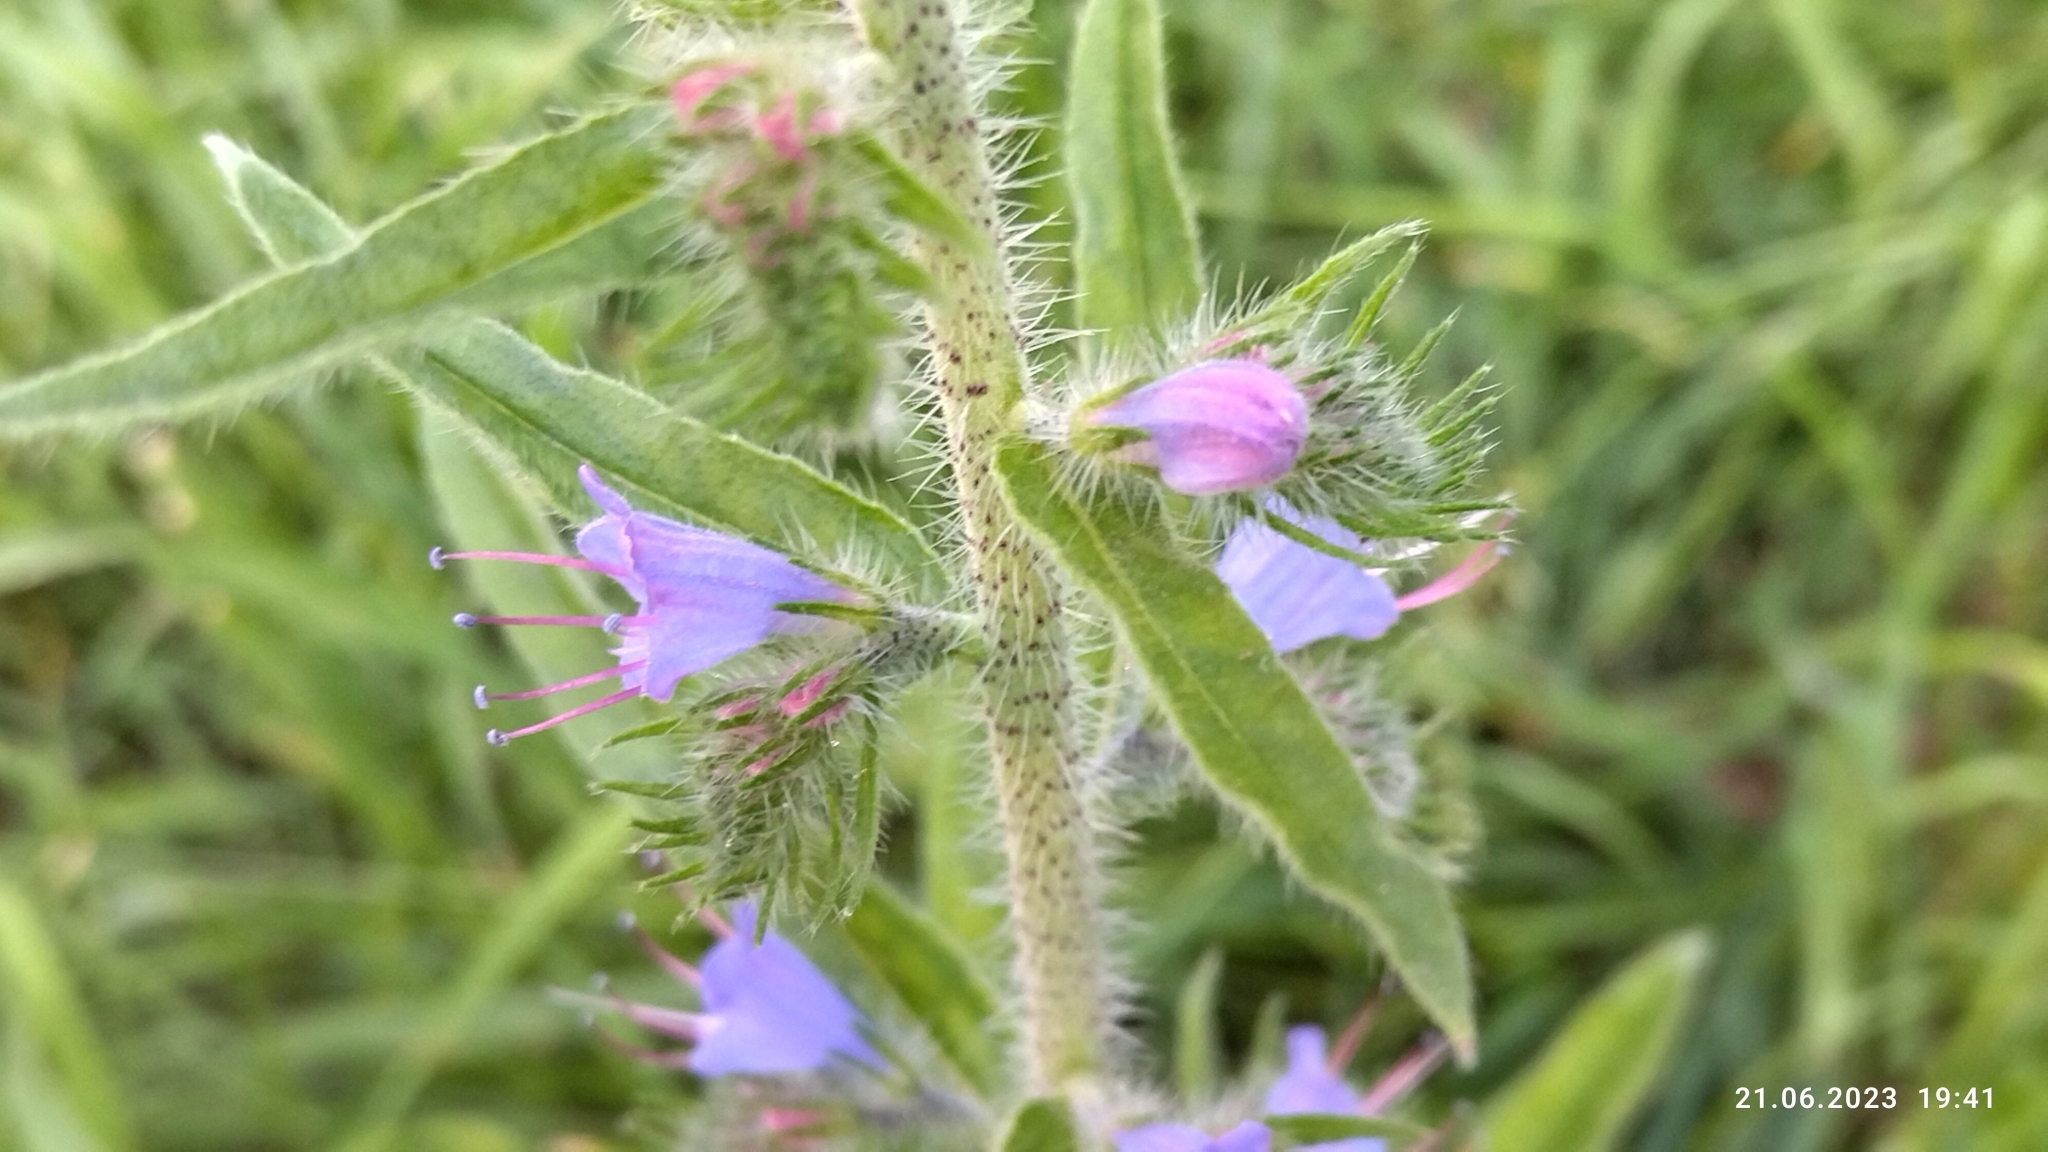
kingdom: Plantae
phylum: Tracheophyta
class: Magnoliopsida
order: Boraginales
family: Boraginaceae
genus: Echium
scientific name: Echium vulgare
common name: Common viper's bugloss
